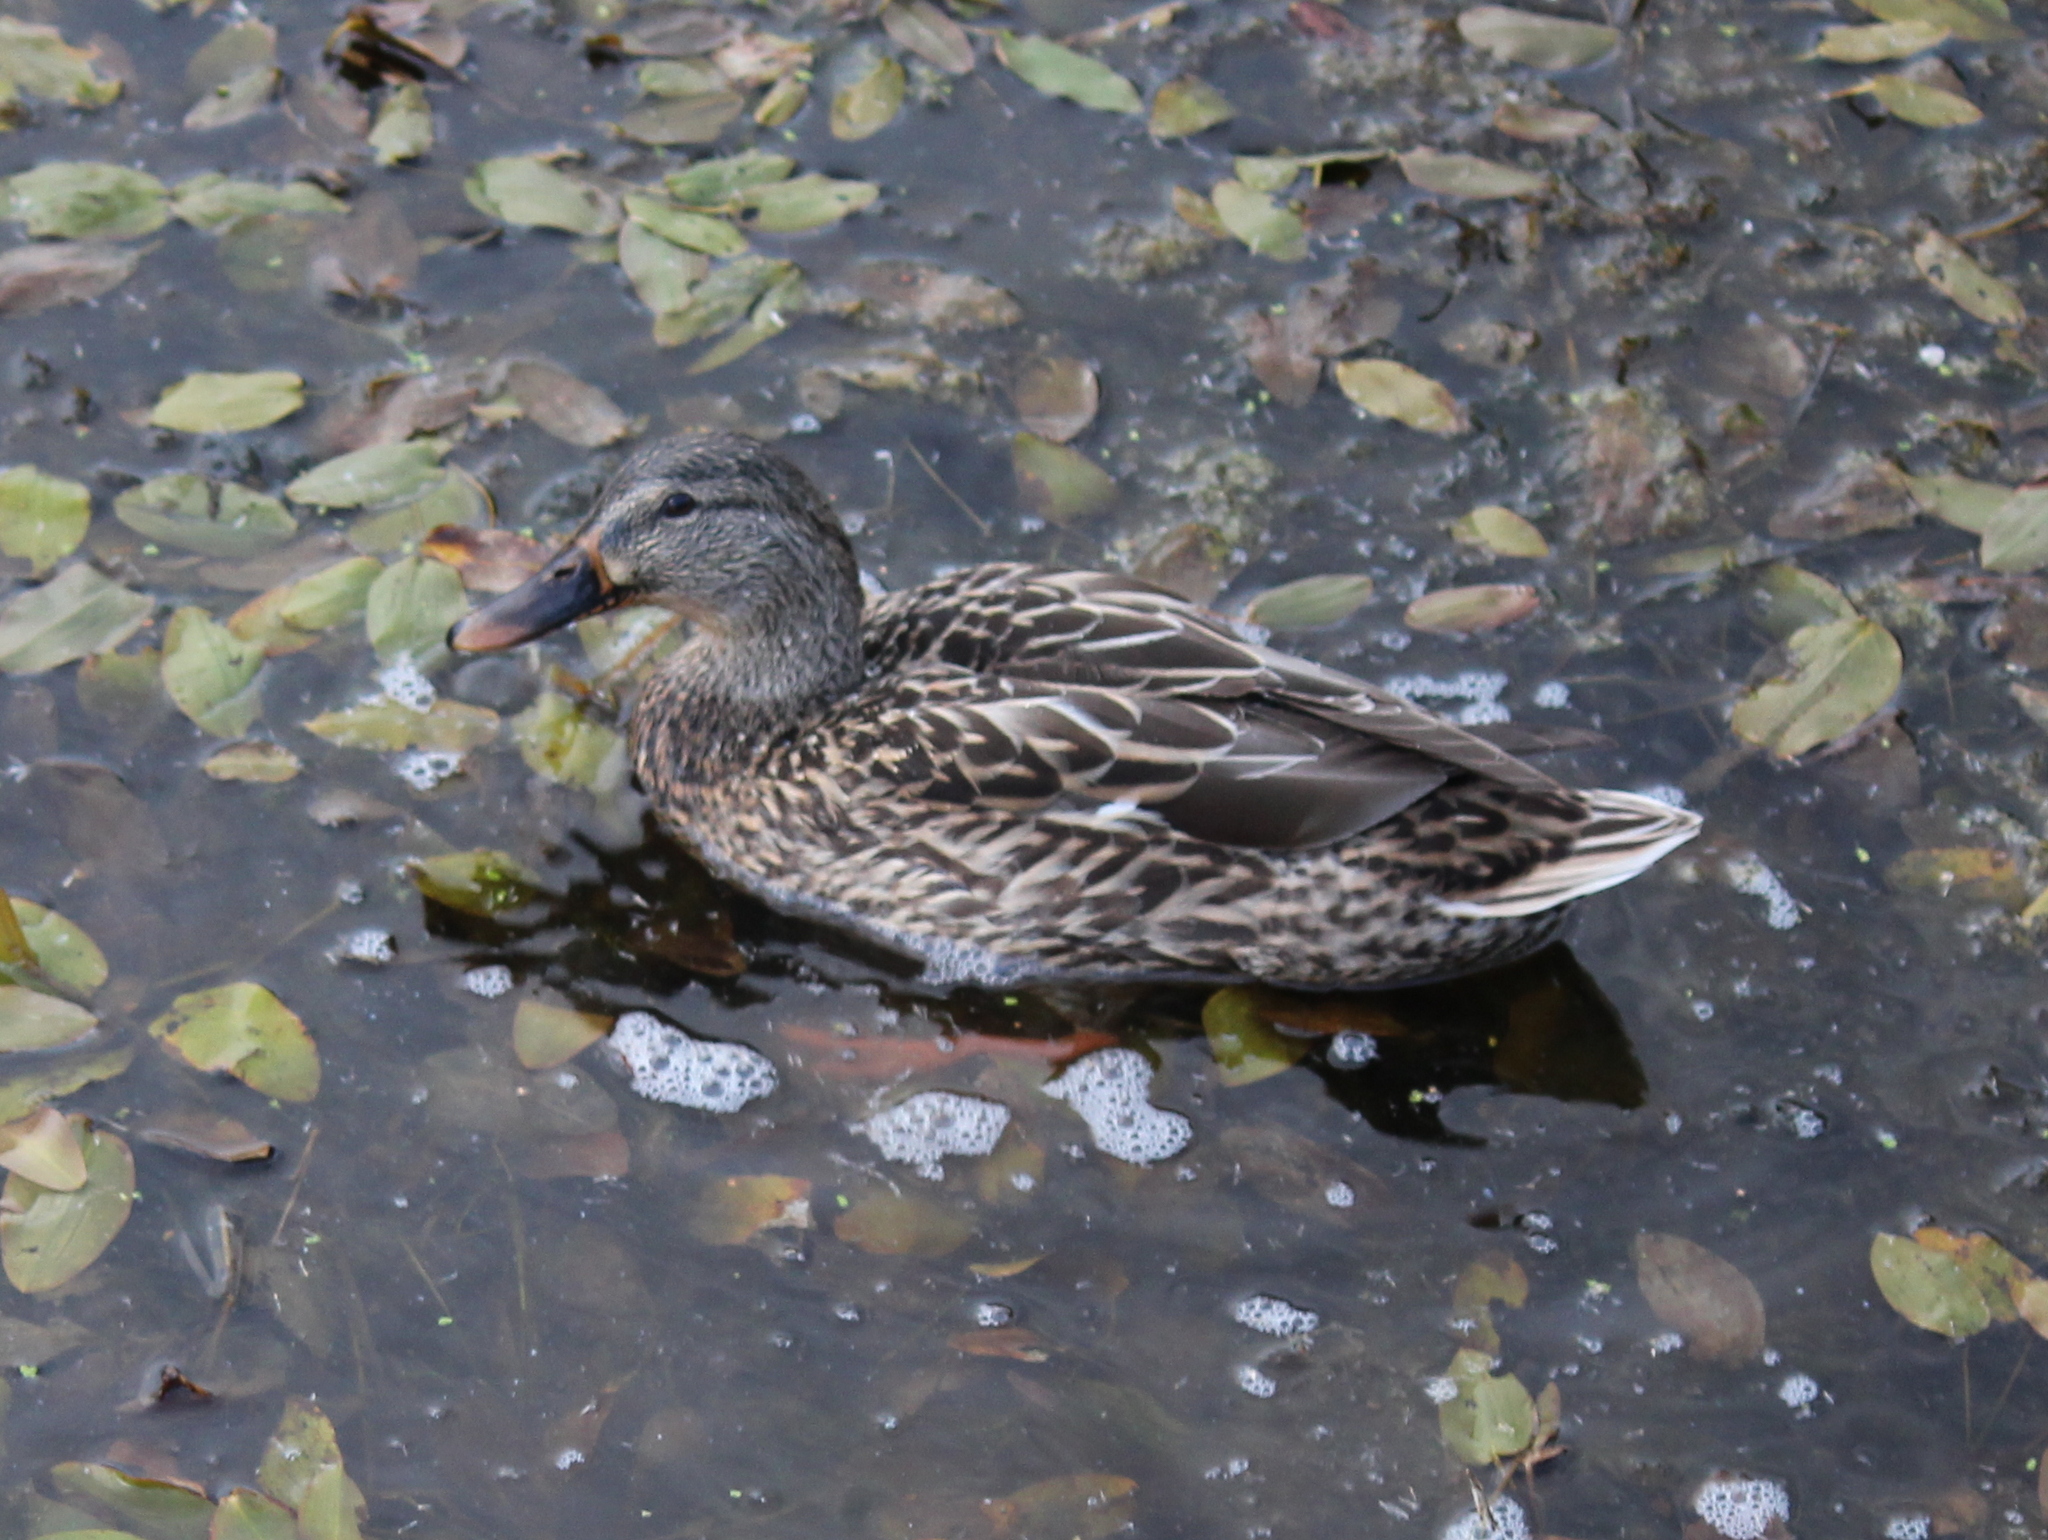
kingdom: Animalia
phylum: Chordata
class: Aves
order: Anseriformes
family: Anatidae
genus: Anas
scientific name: Anas platyrhynchos
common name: Mallard
